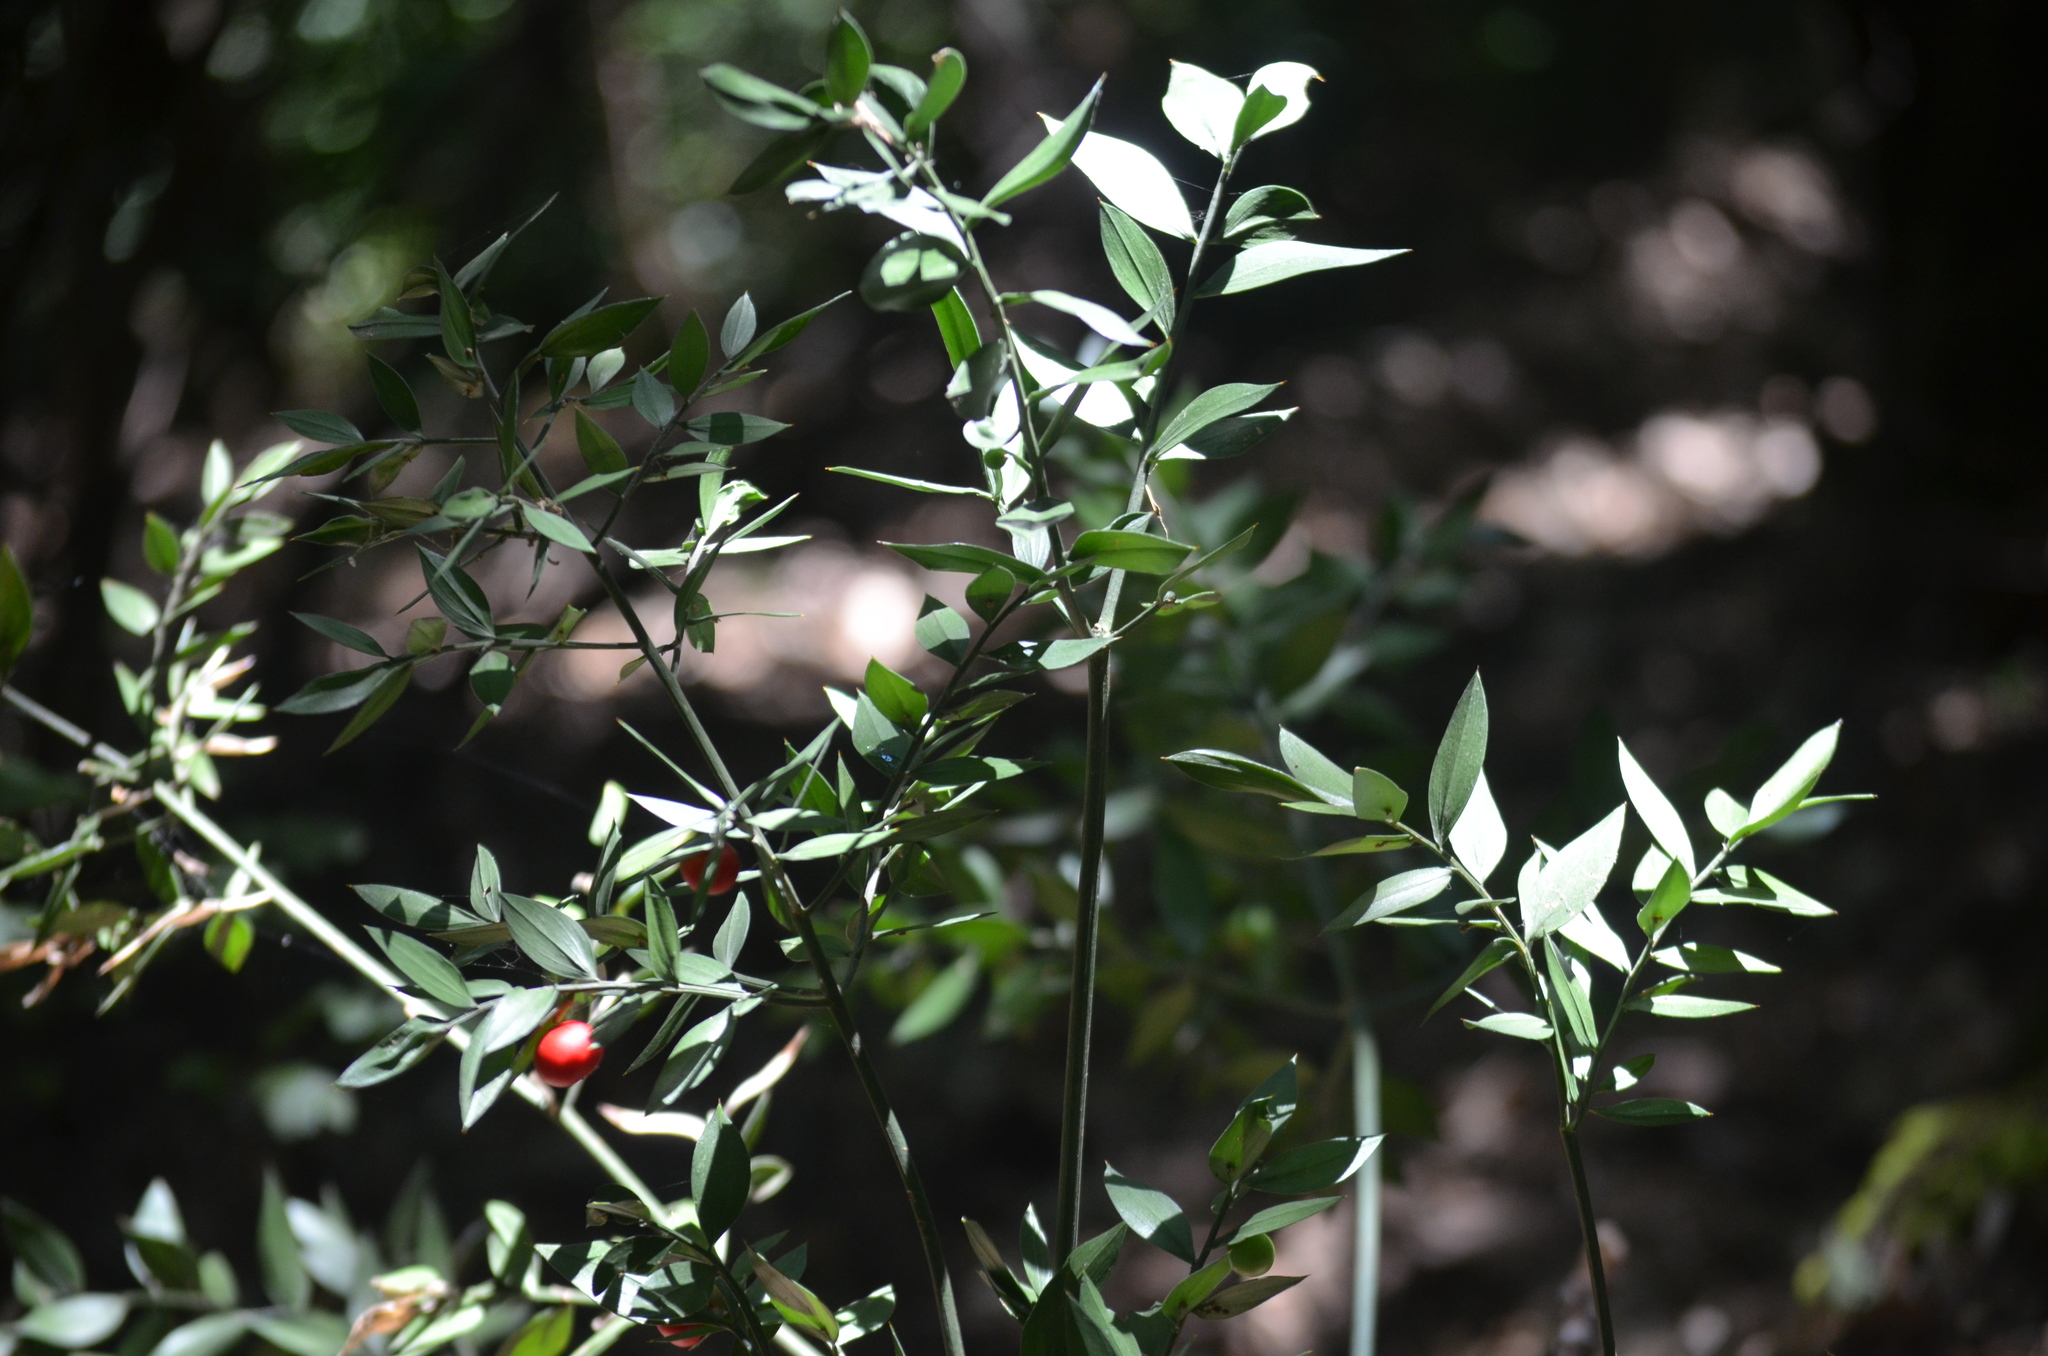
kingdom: Plantae
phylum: Tracheophyta
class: Liliopsida
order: Asparagales
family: Asparagaceae
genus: Ruscus
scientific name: Ruscus aculeatus
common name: Butcher's-broom
